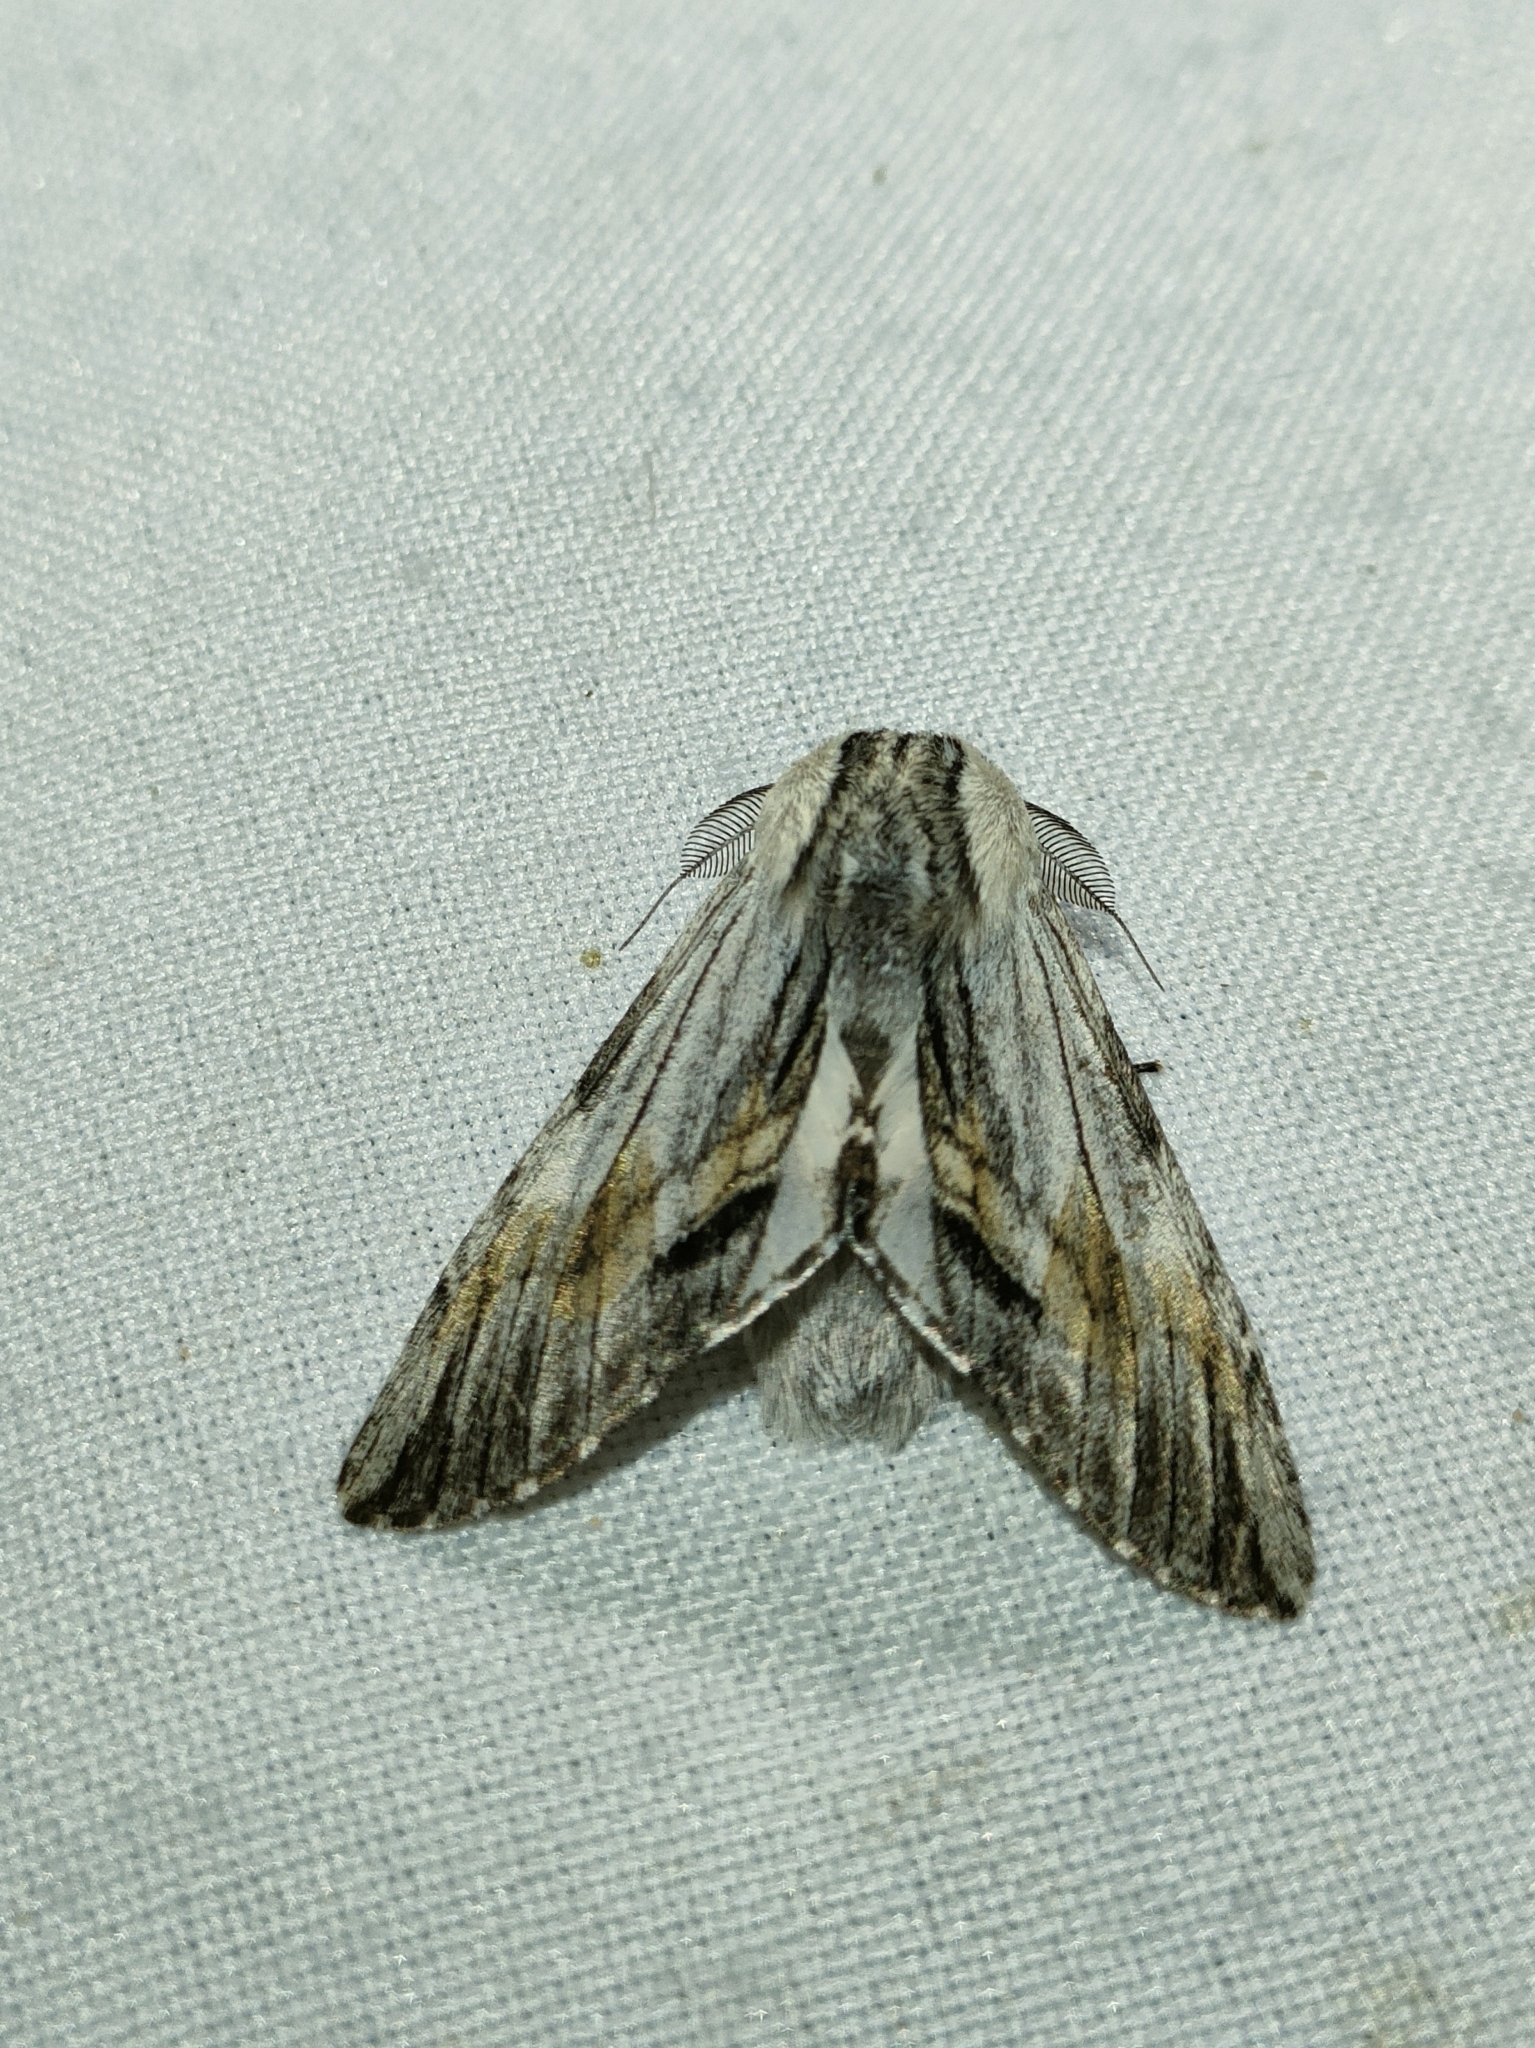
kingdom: Animalia
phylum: Arthropoda
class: Insecta
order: Lepidoptera
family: Notodontidae
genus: Harpyia
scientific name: Harpyia milhauseri
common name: Tawny prominent
